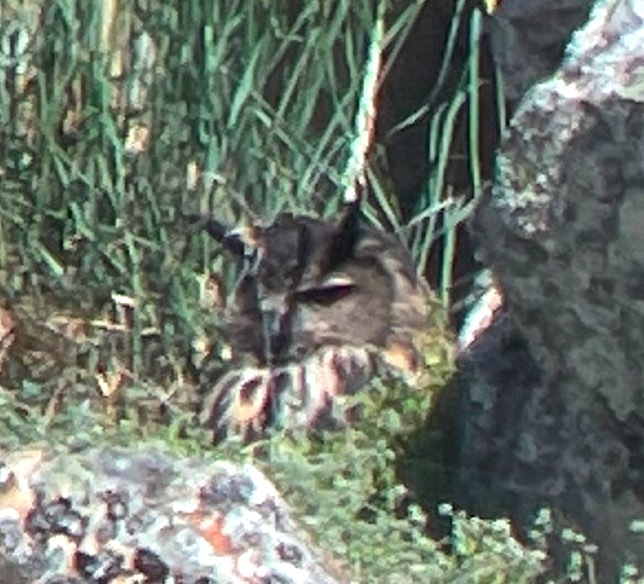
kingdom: Animalia
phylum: Chordata
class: Aves
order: Strigiformes
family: Strigidae
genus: Bubo
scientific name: Bubo bubo
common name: Eurasian eagle-owl
